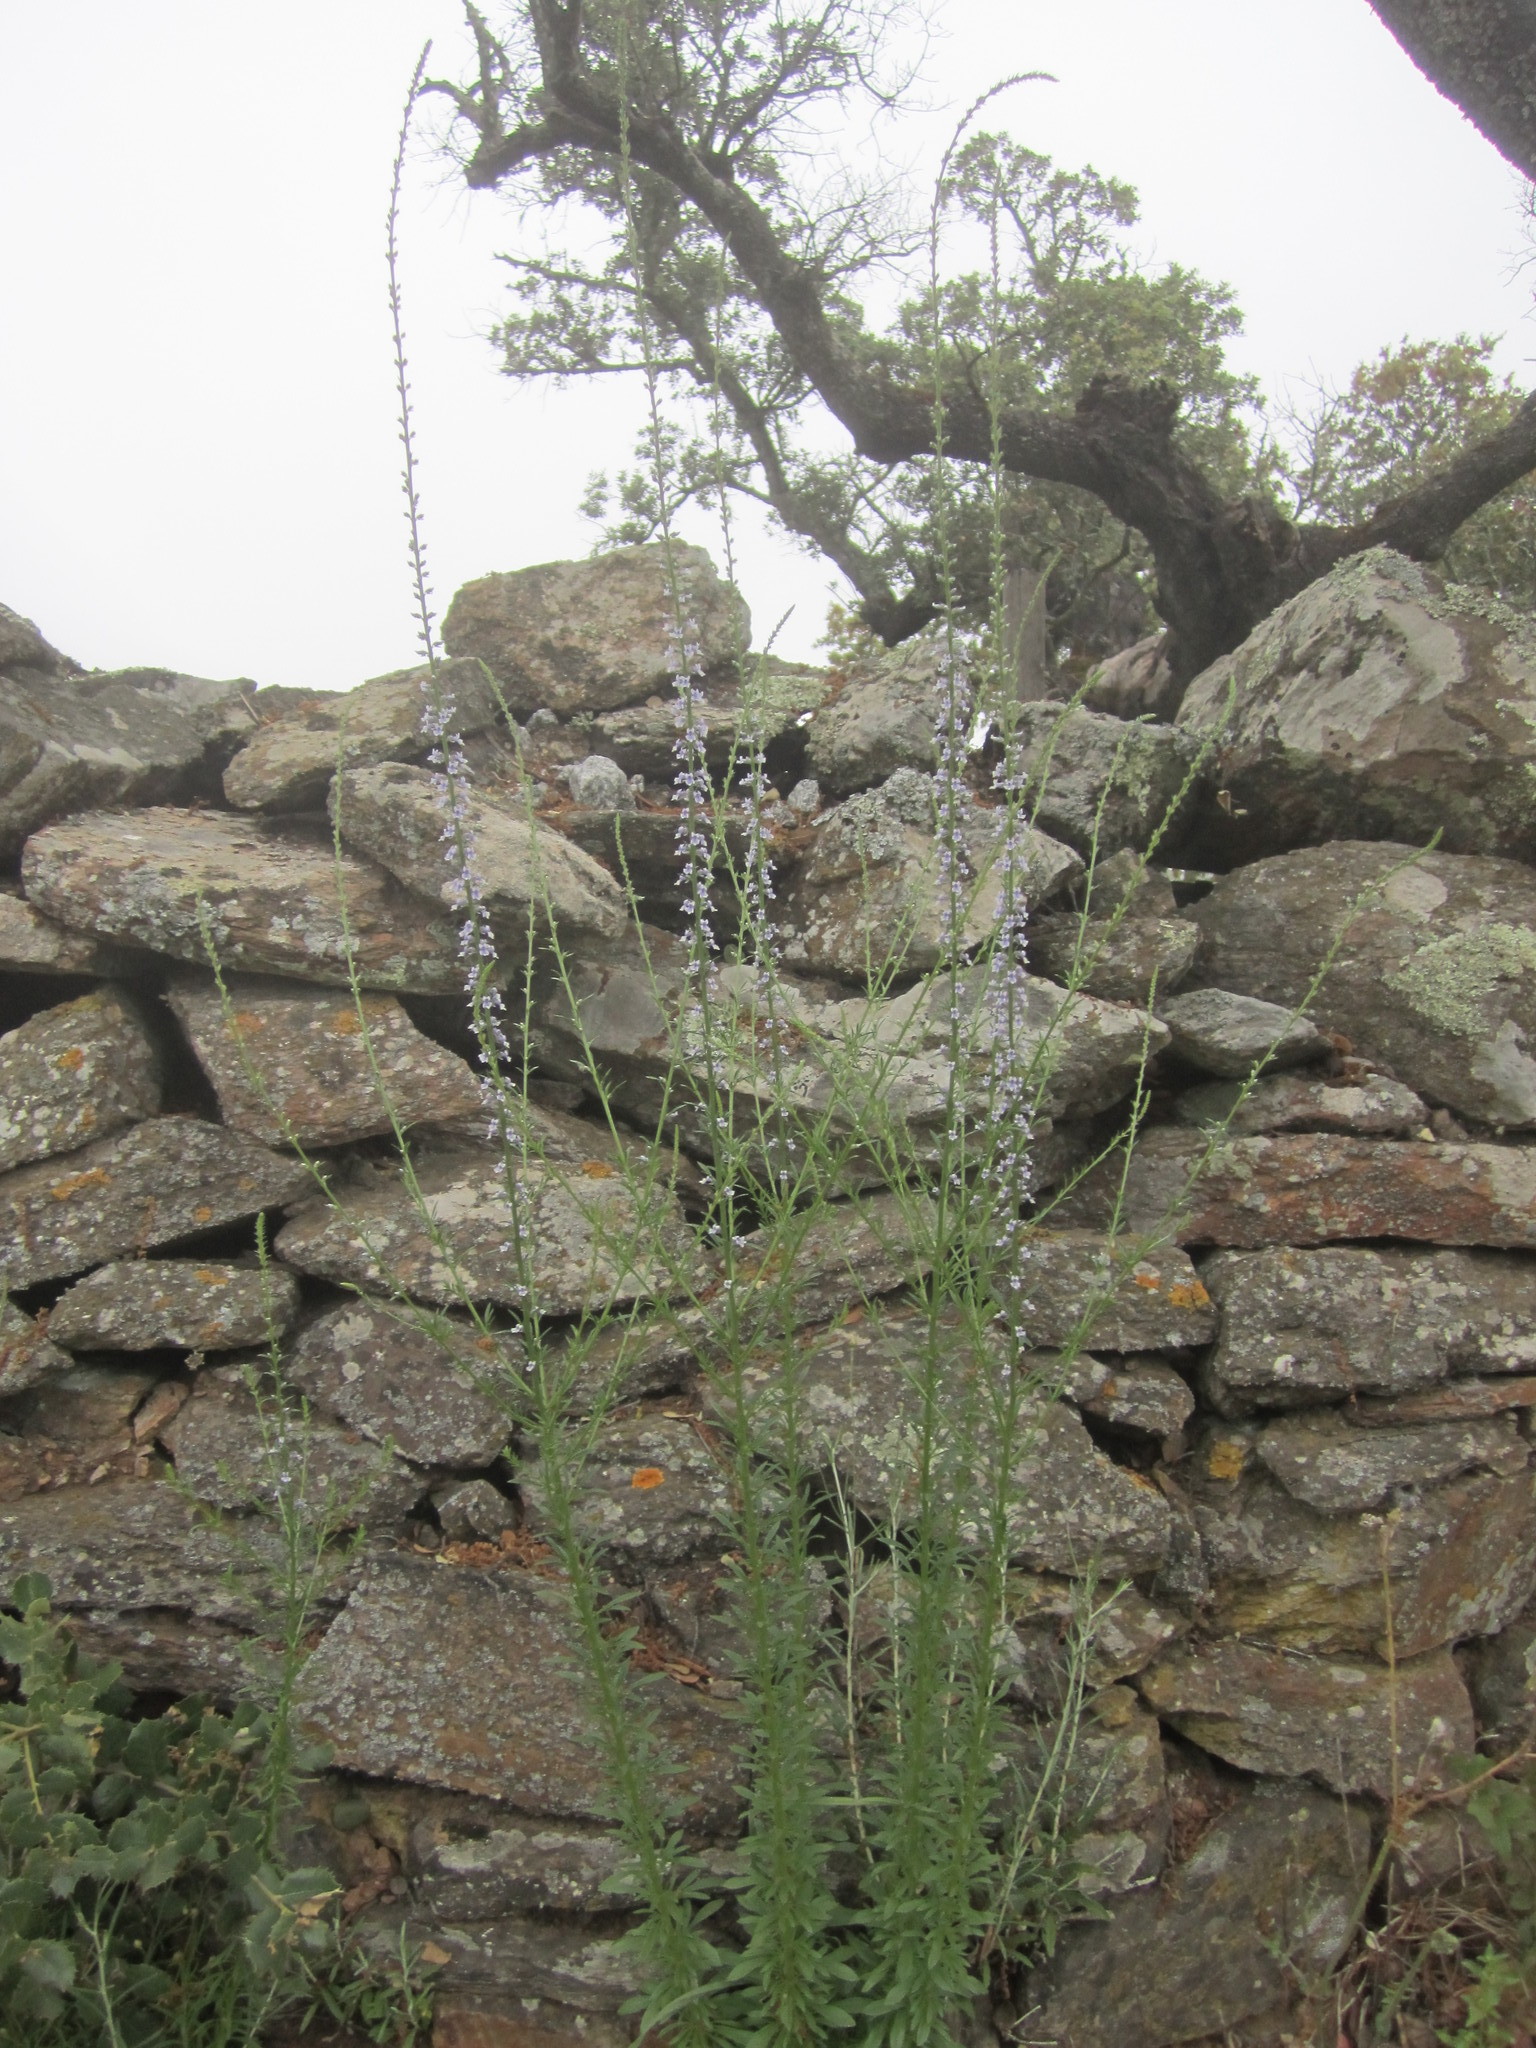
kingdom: Plantae
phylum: Tracheophyta
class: Magnoliopsida
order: Lamiales
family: Plantaginaceae
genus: Anarrhinum
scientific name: Anarrhinum bellidifolium
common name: Daisy-leaved toadflax
